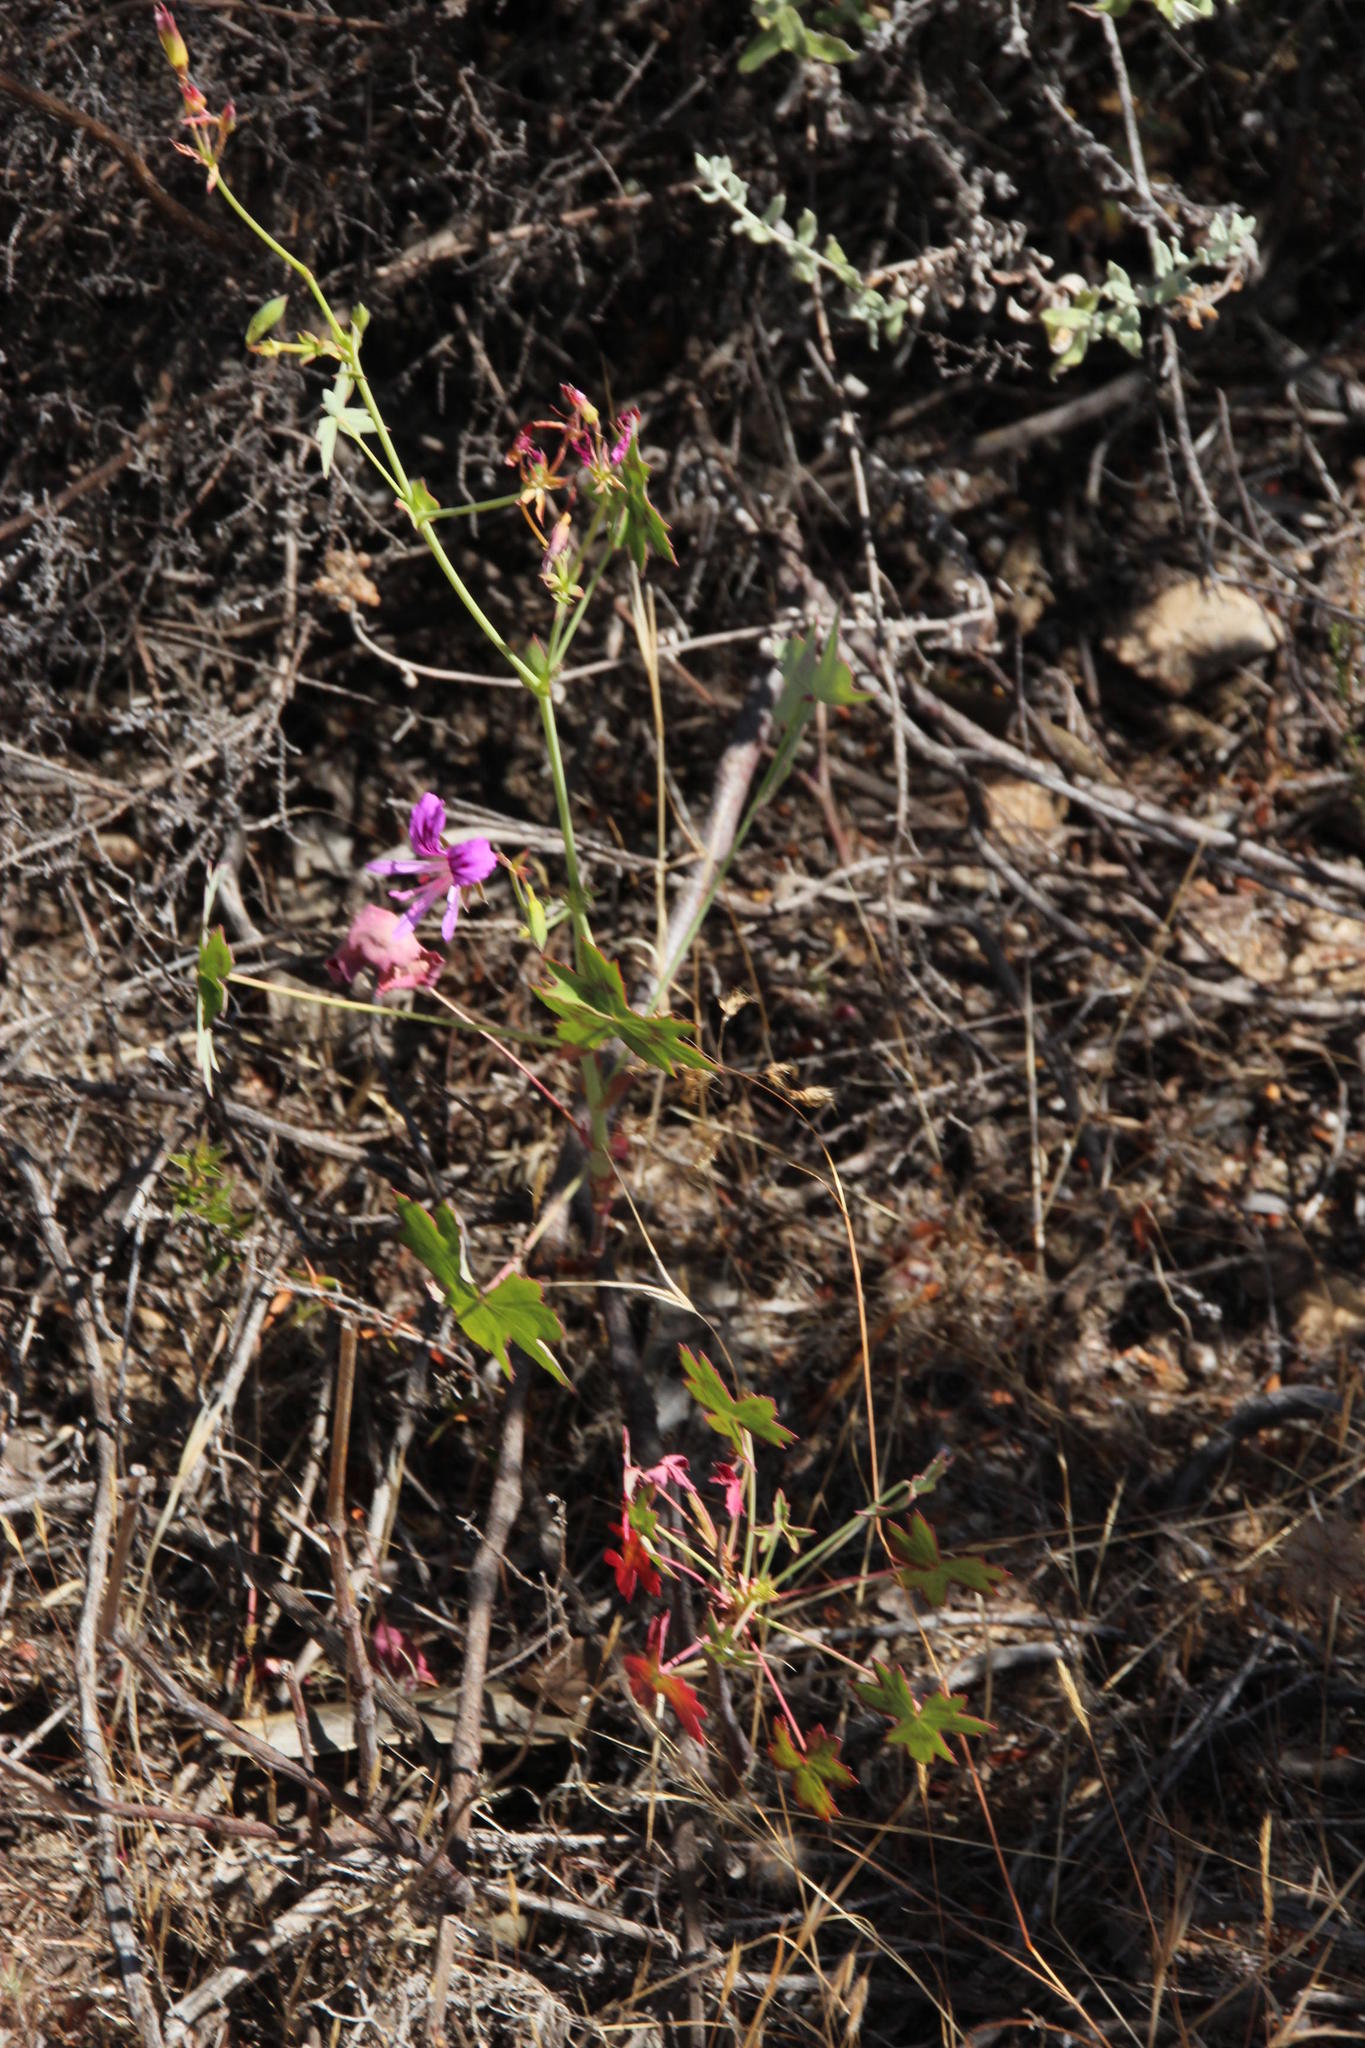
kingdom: Plantae
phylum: Tracheophyta
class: Magnoliopsida
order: Geraniales
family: Geraniaceae
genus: Pelargonium
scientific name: Pelargonium grandiflorum
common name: Large-flower pelargonium
